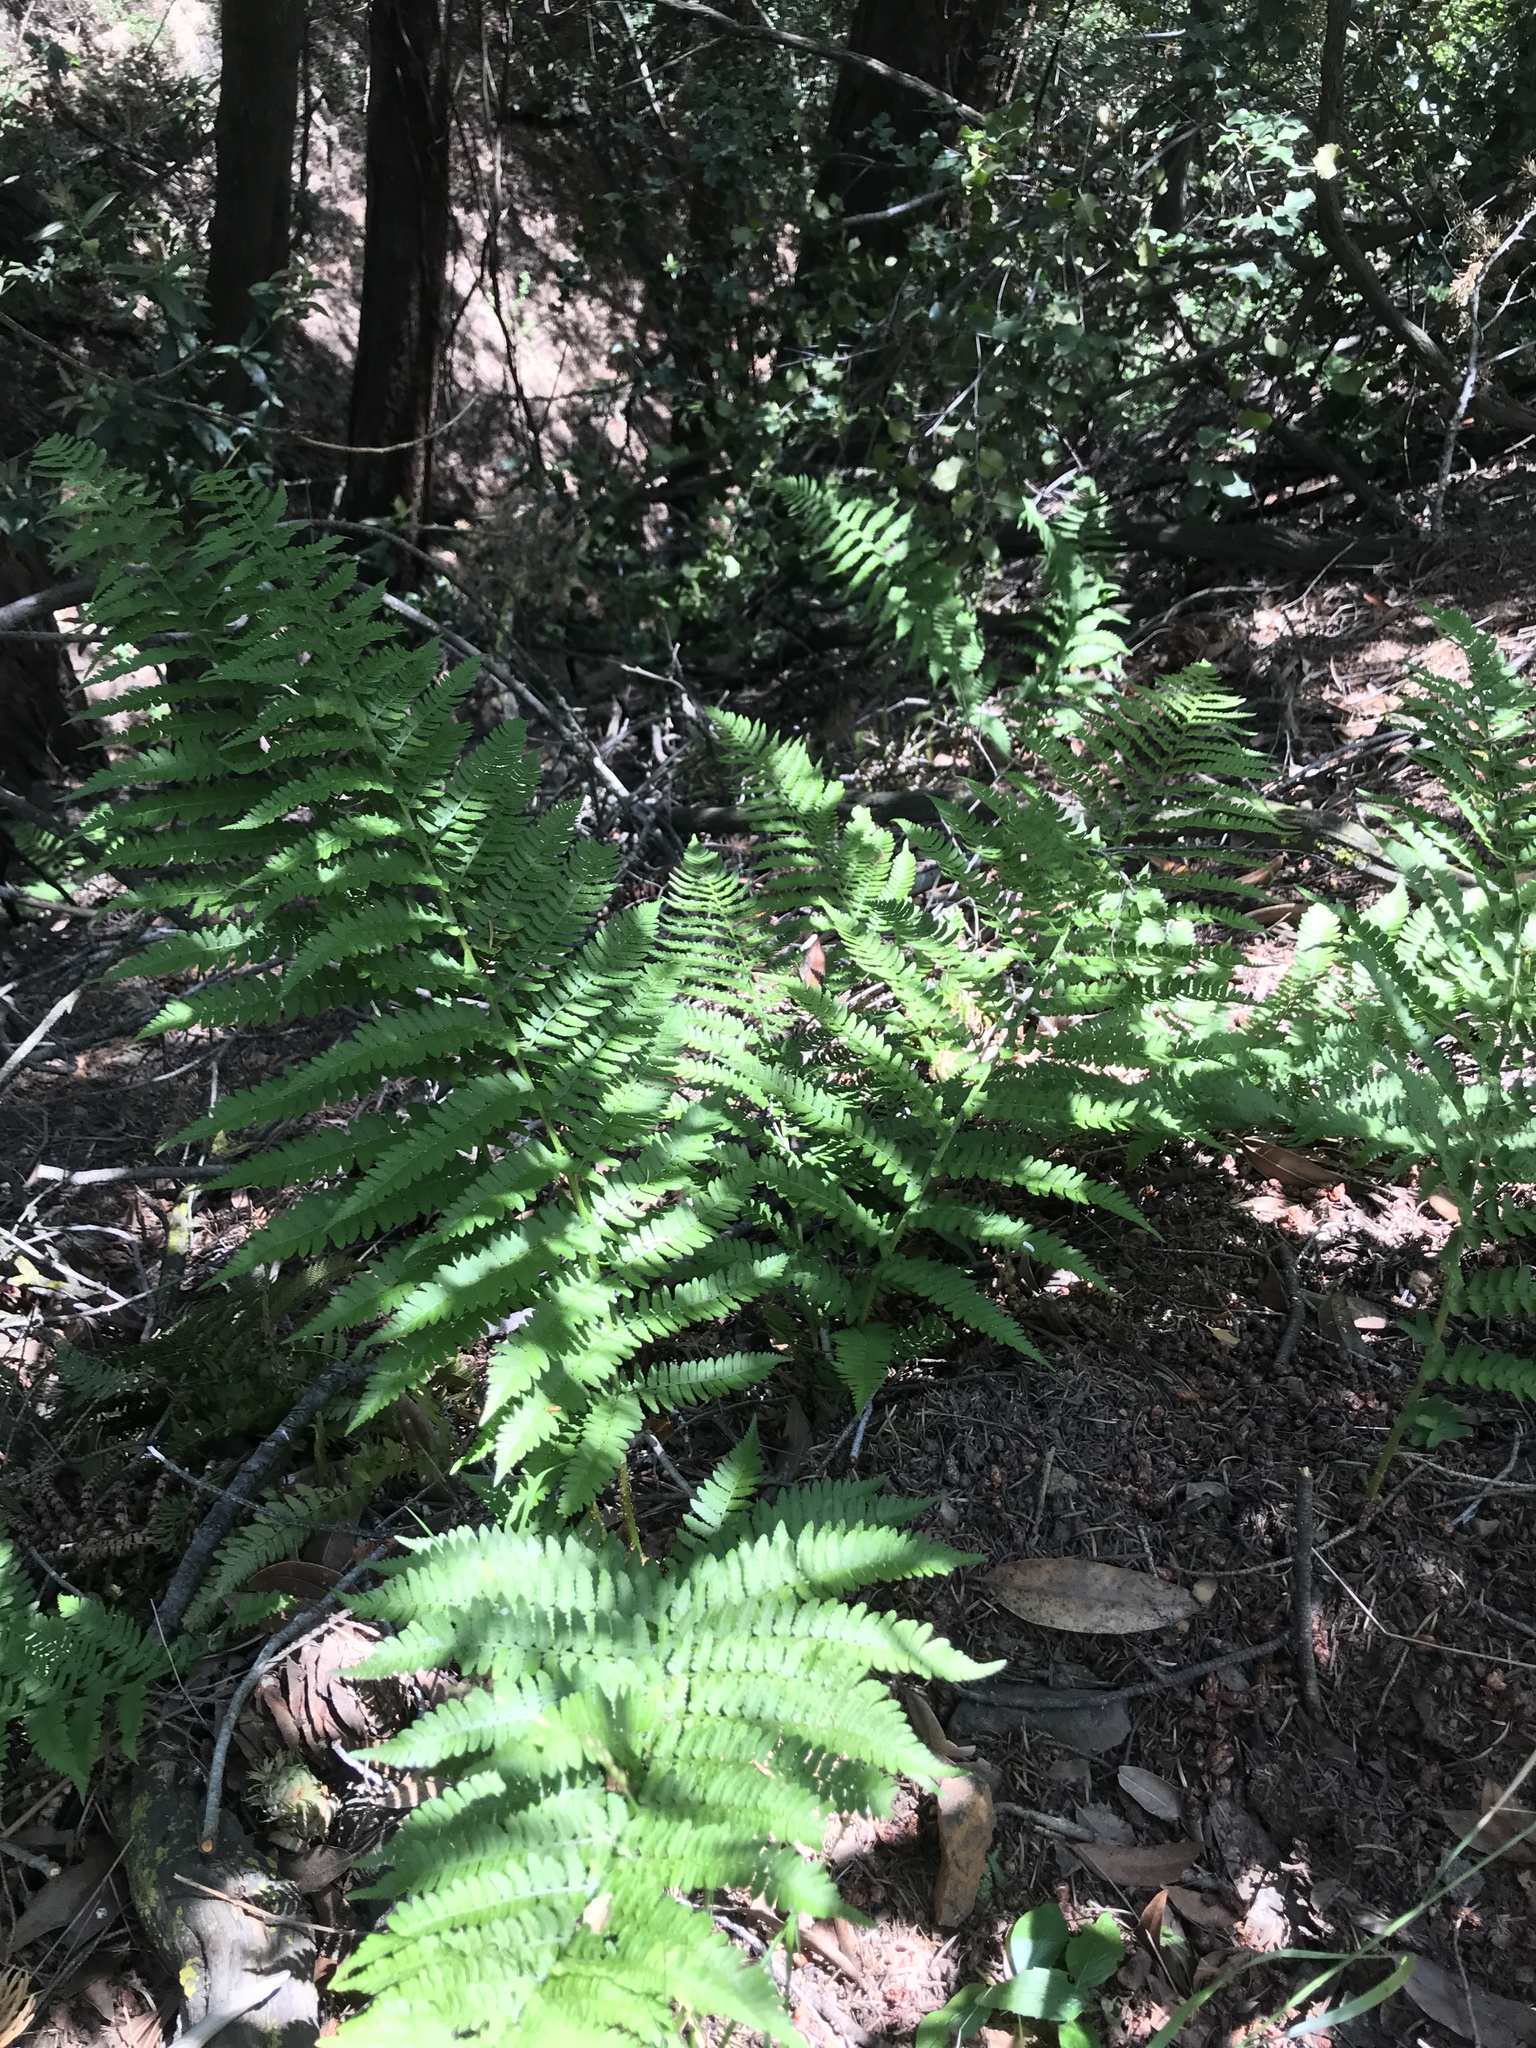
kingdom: Plantae
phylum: Tracheophyta
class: Polypodiopsida
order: Polypodiales
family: Dryopteridaceae
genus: Dryopteris
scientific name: Dryopteris arguta
